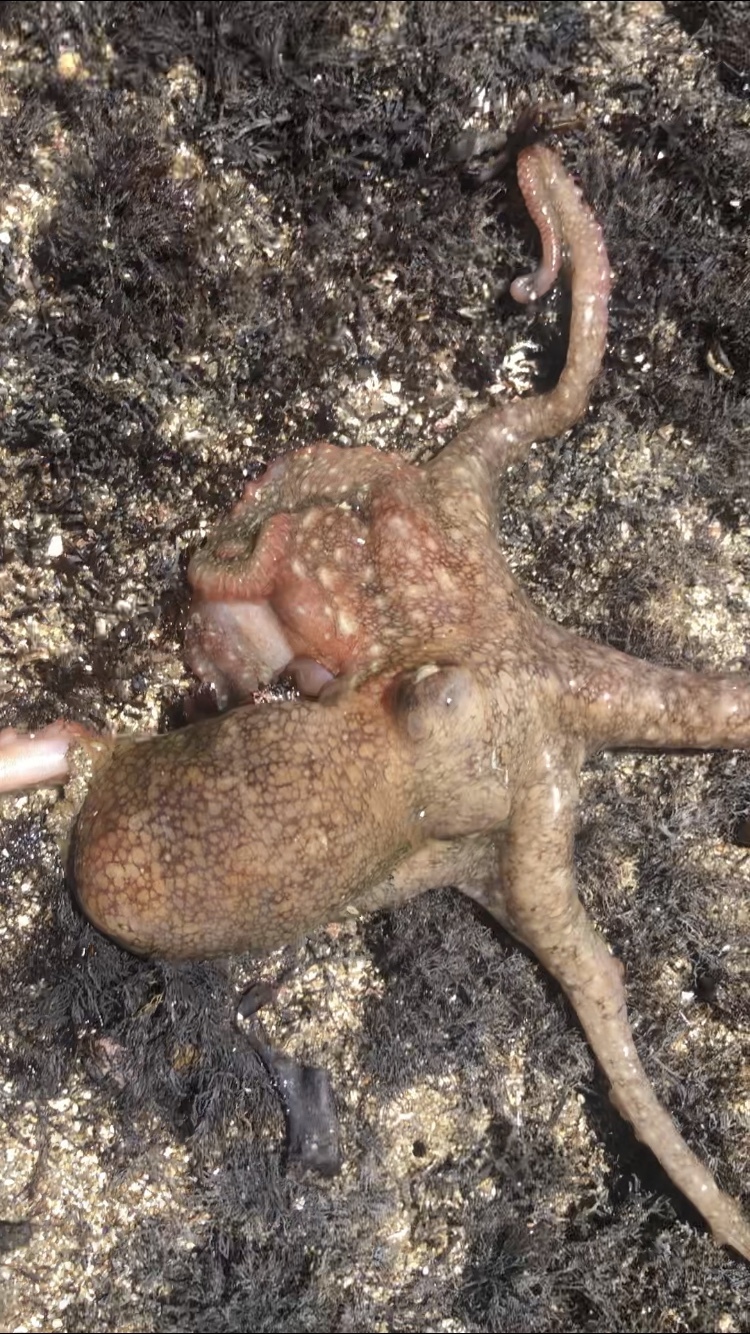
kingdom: Animalia
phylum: Mollusca
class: Cephalopoda
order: Octopoda
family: Octopodidae
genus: Octopus
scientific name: Octopus rubescens
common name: East pacific red octopus
